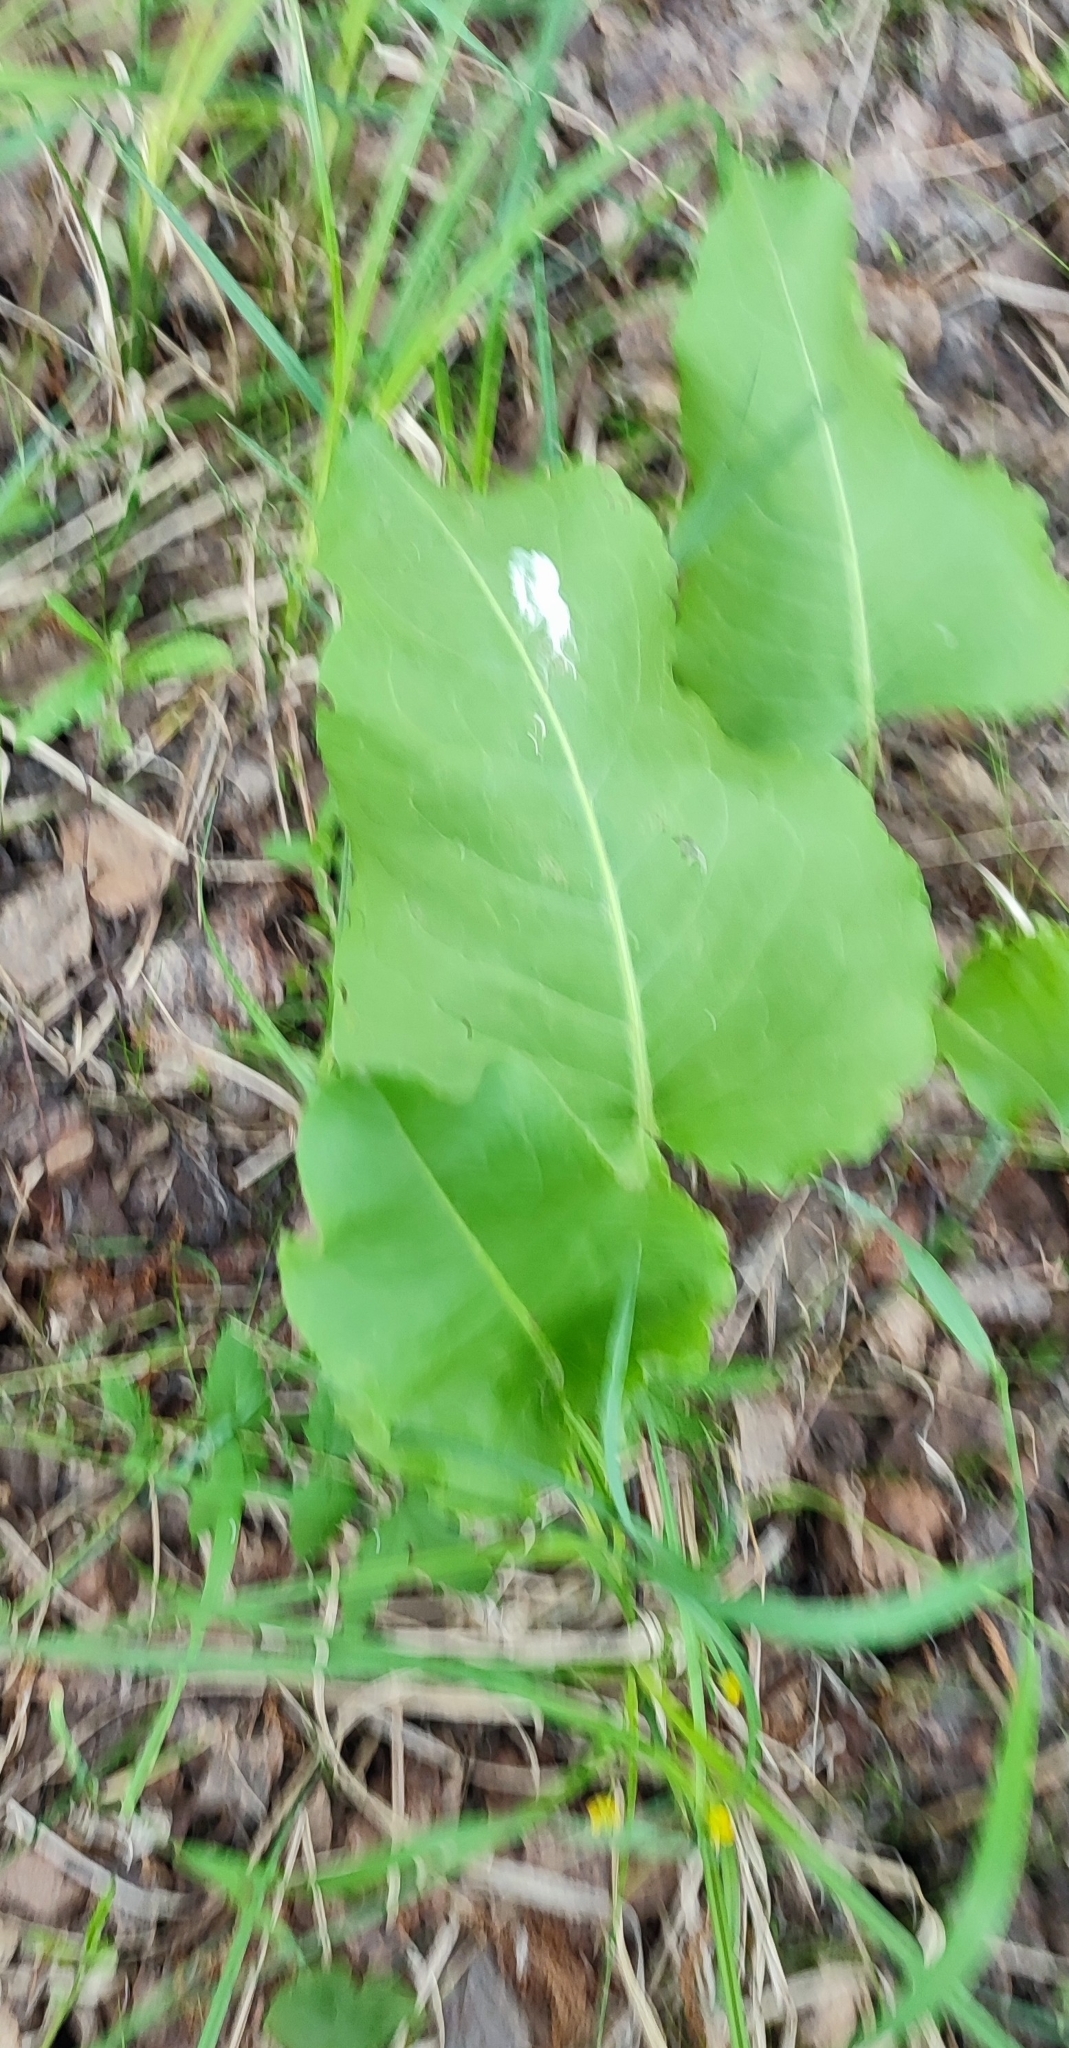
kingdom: Plantae
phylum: Tracheophyta
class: Magnoliopsida
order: Caryophyllales
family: Polygonaceae
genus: Rumex
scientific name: Rumex confertus
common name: Russian dock
